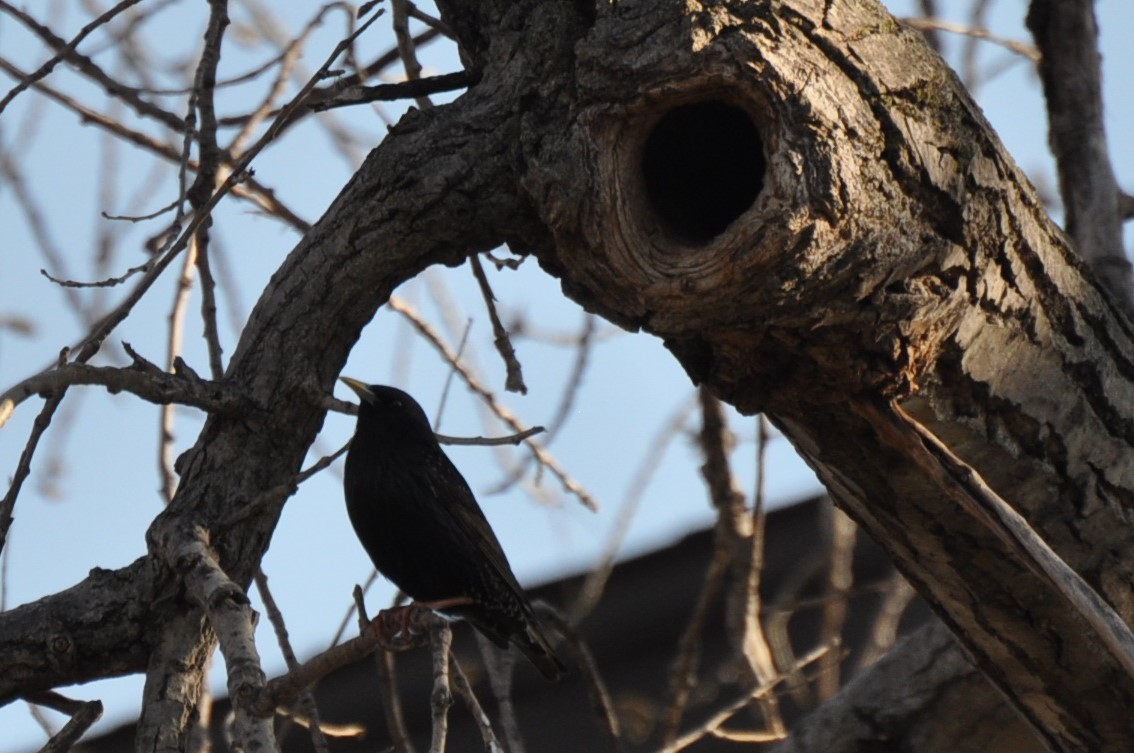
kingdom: Animalia
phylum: Chordata
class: Aves
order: Passeriformes
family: Sturnidae
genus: Sturnus
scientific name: Sturnus vulgaris
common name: Common starling
